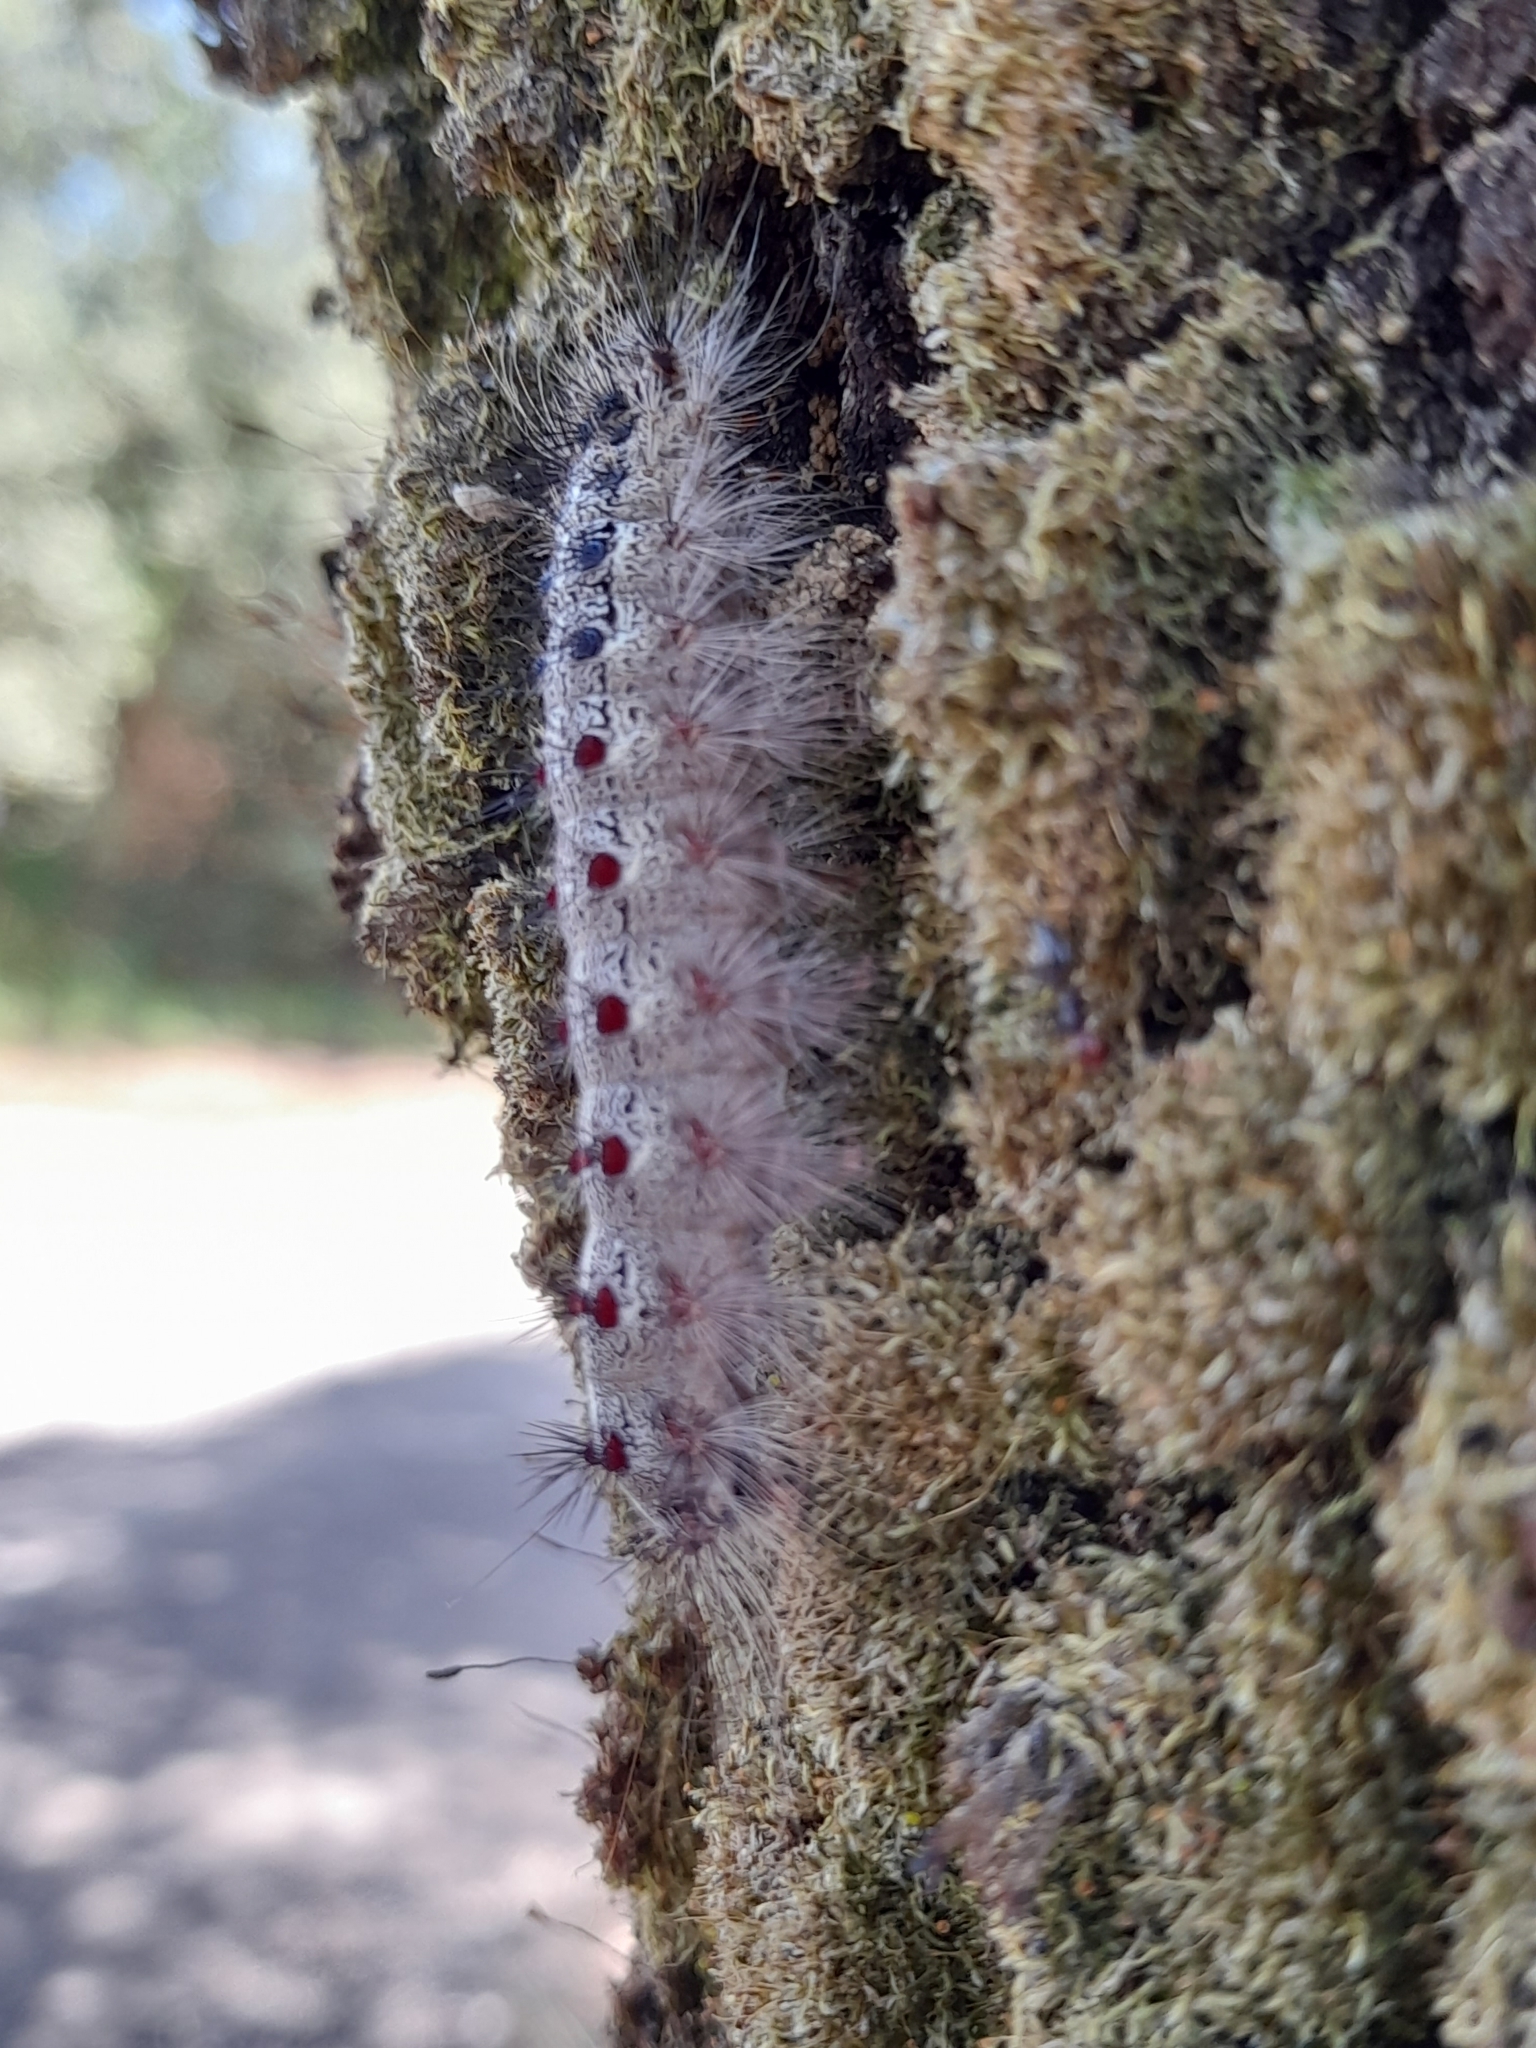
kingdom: Animalia
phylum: Arthropoda
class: Insecta
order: Lepidoptera
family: Erebidae
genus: Lymantria
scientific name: Lymantria dispar
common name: Gypsy moth
